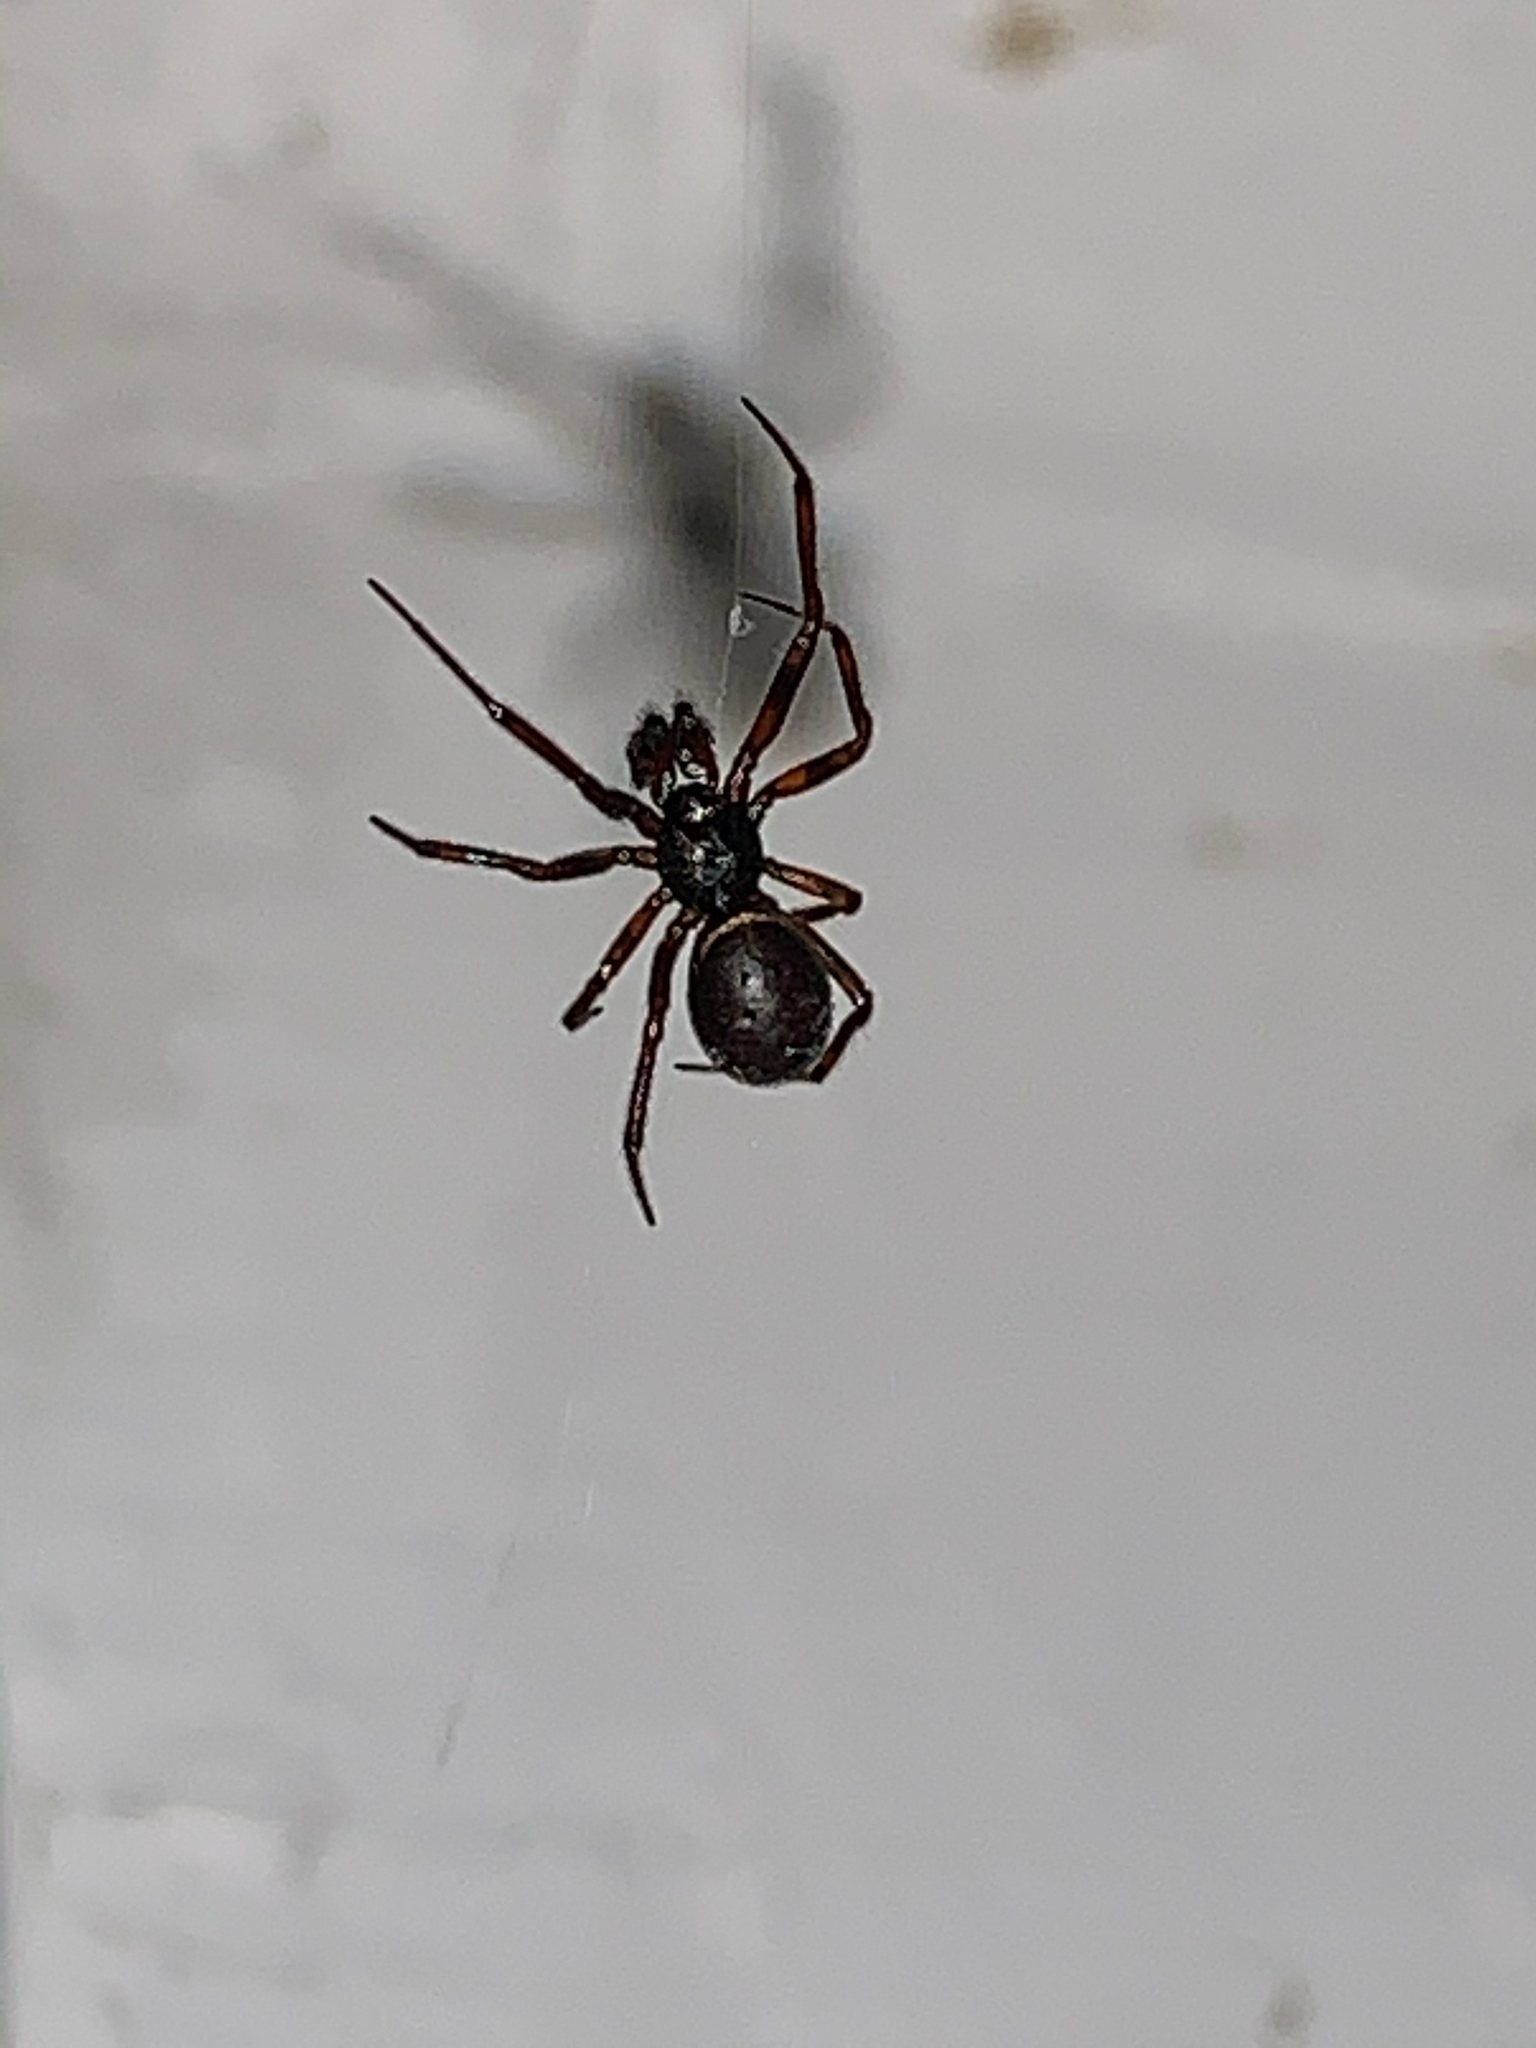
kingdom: Animalia
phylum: Arthropoda
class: Arachnida
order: Araneae
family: Theridiidae
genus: Steatoda
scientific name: Steatoda borealis
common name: Boreal combfoot
